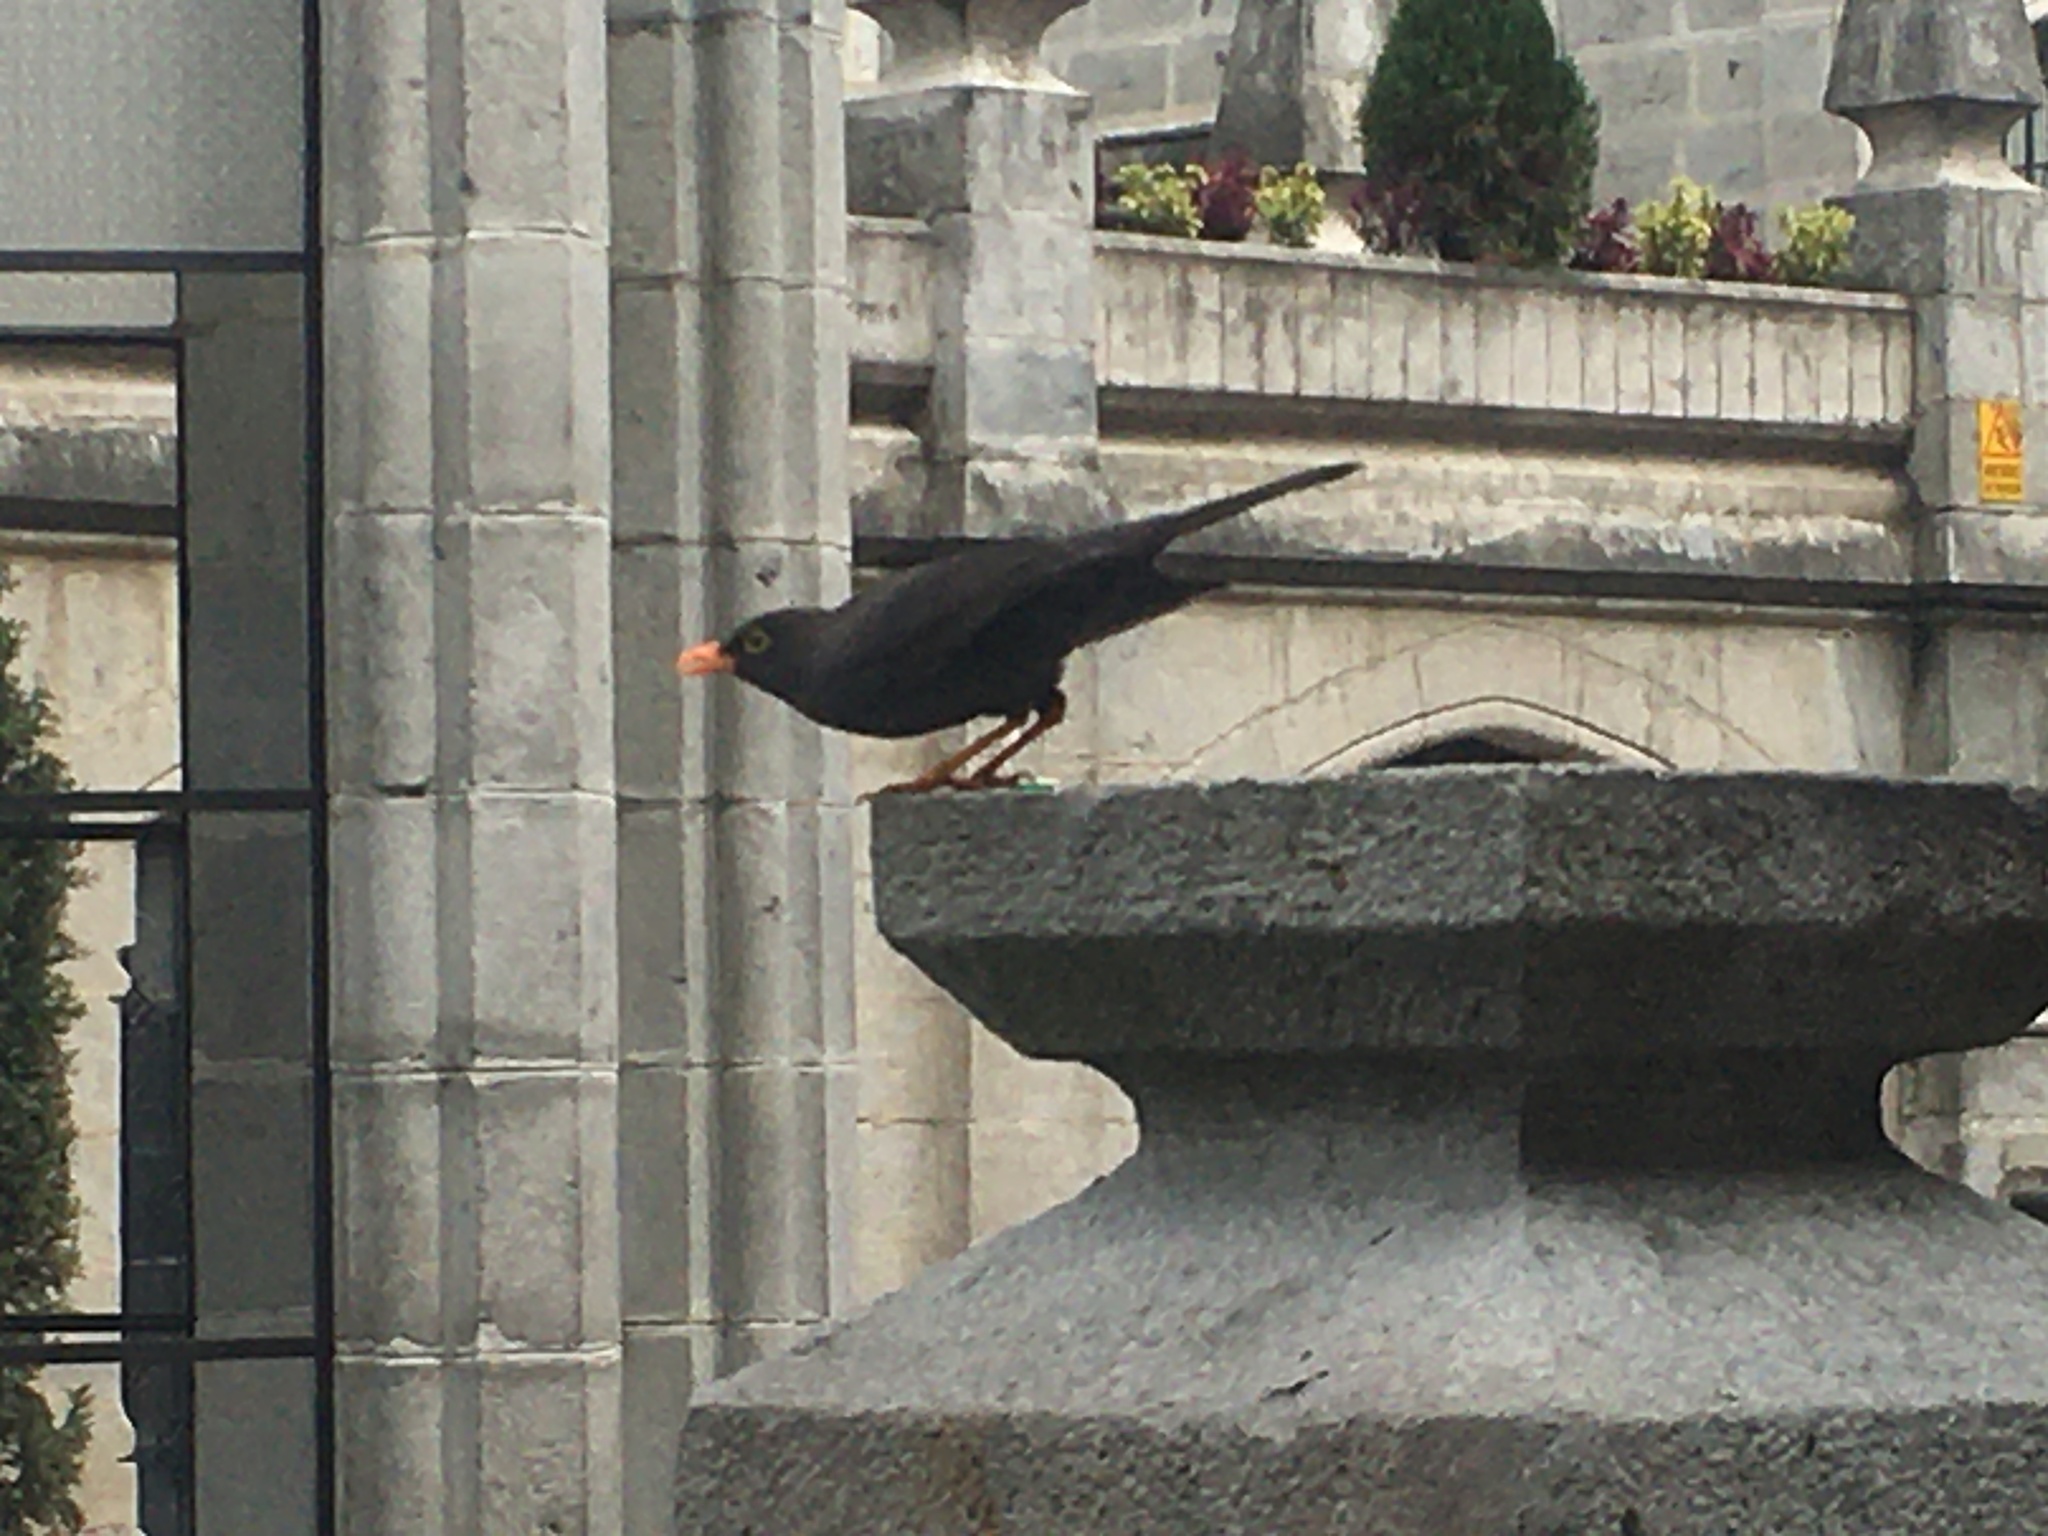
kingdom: Animalia
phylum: Chordata
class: Aves
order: Passeriformes
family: Turdidae
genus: Turdus
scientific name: Turdus fuscater
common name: Great thrush
